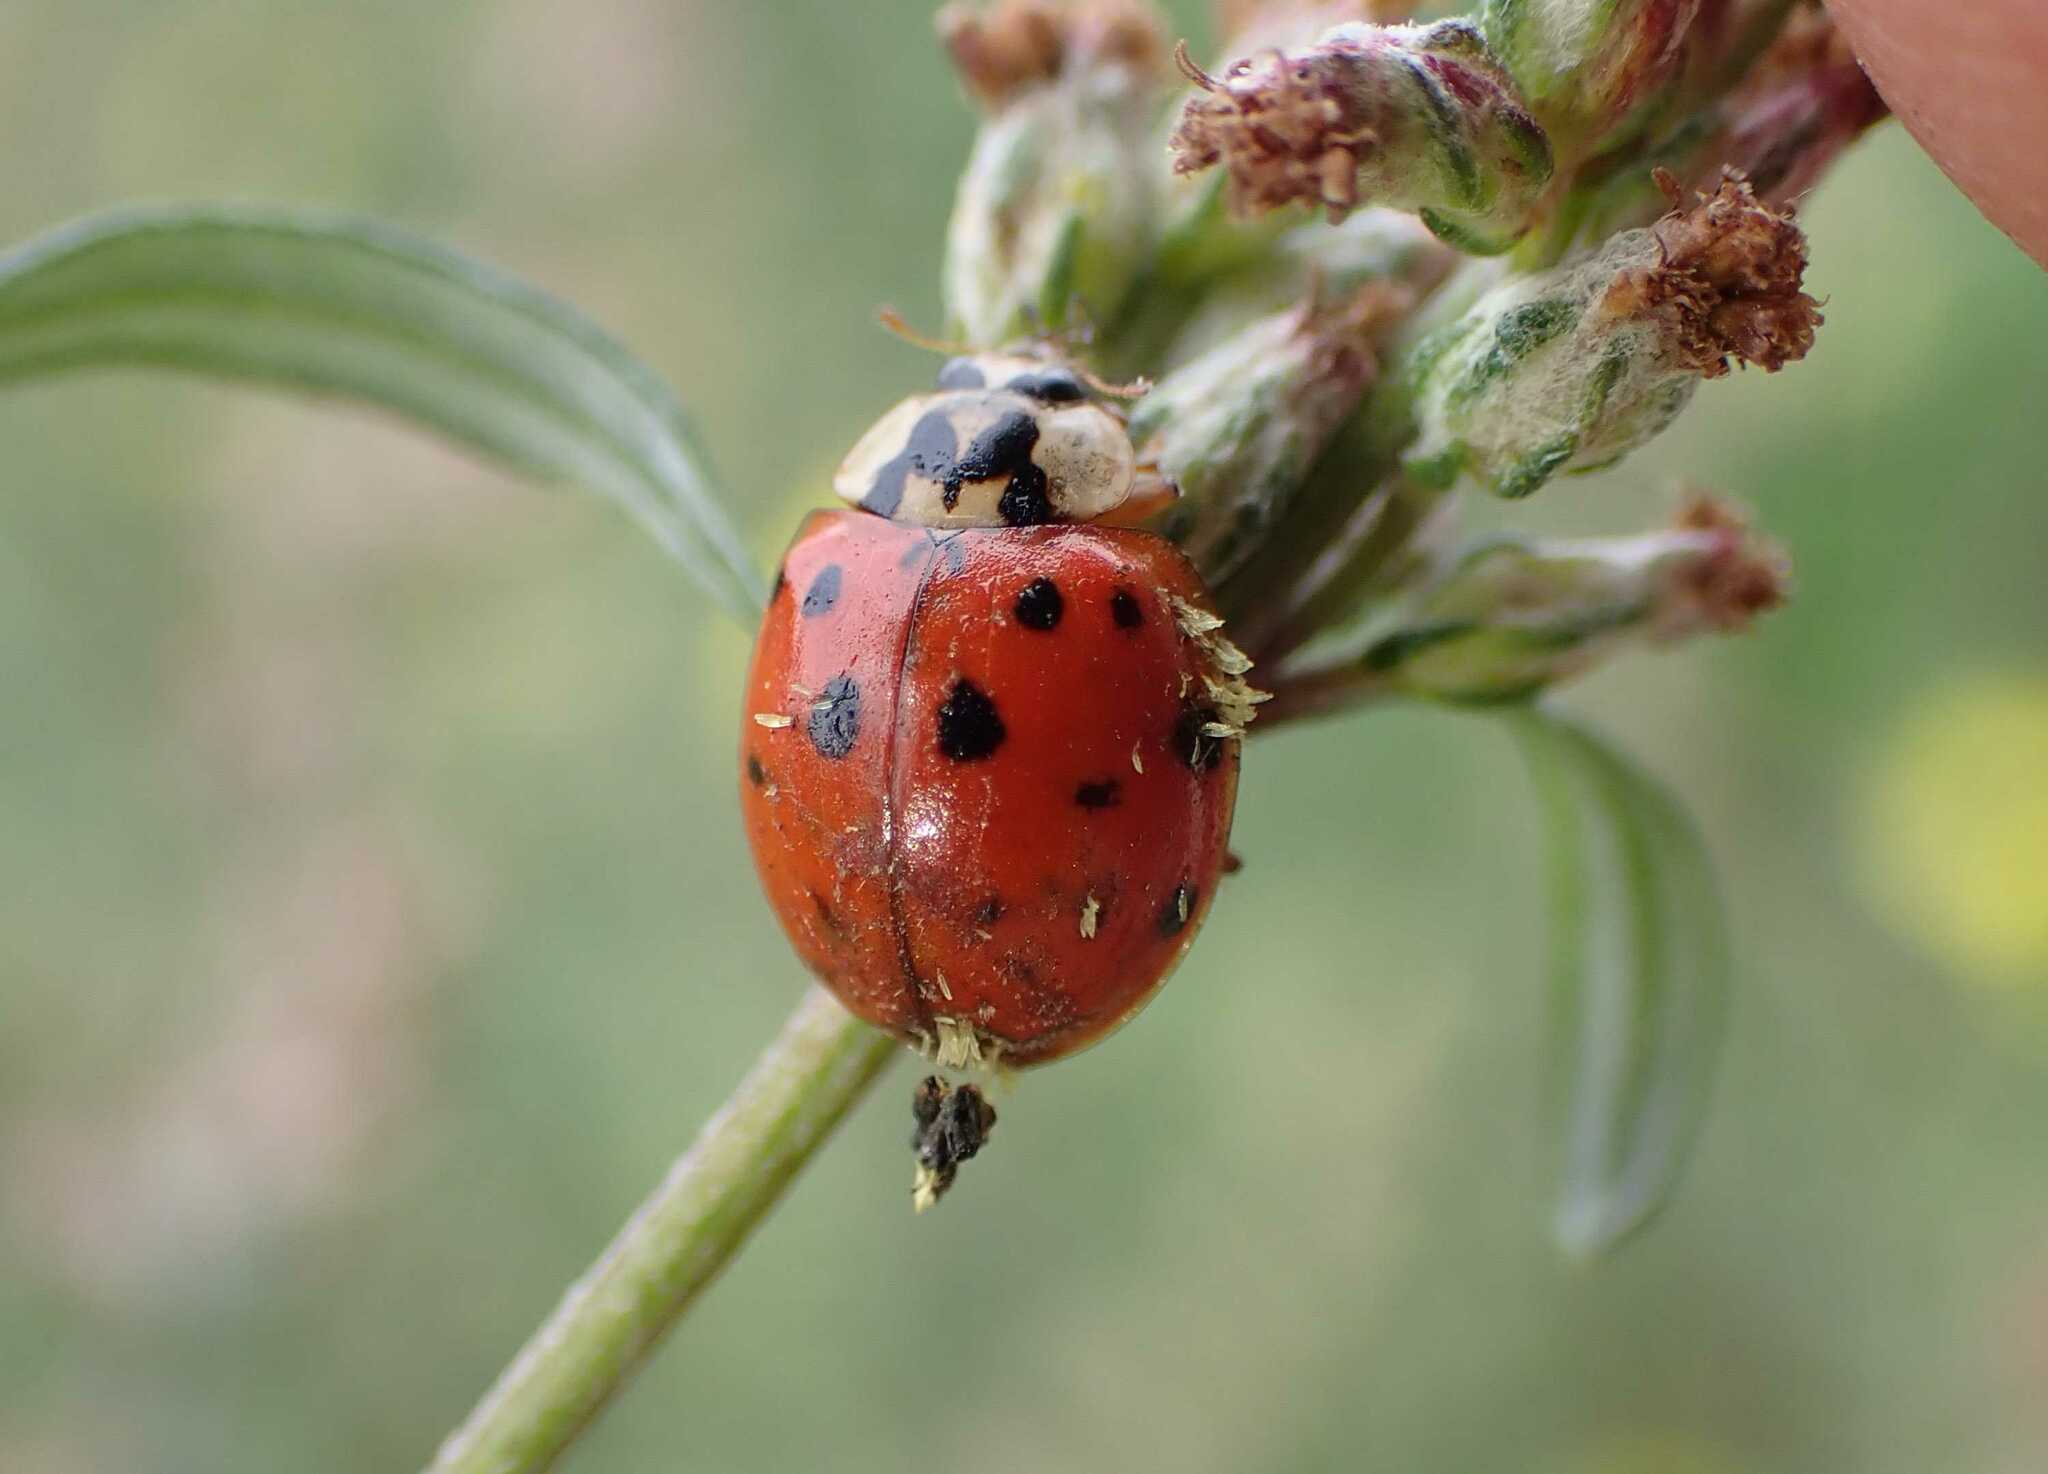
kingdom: Fungi
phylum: Ascomycota
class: Laboulbeniomycetes
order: Laboulbeniales
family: Laboulbeniaceae
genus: Hesperomyces
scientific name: Hesperomyces harmoniae
